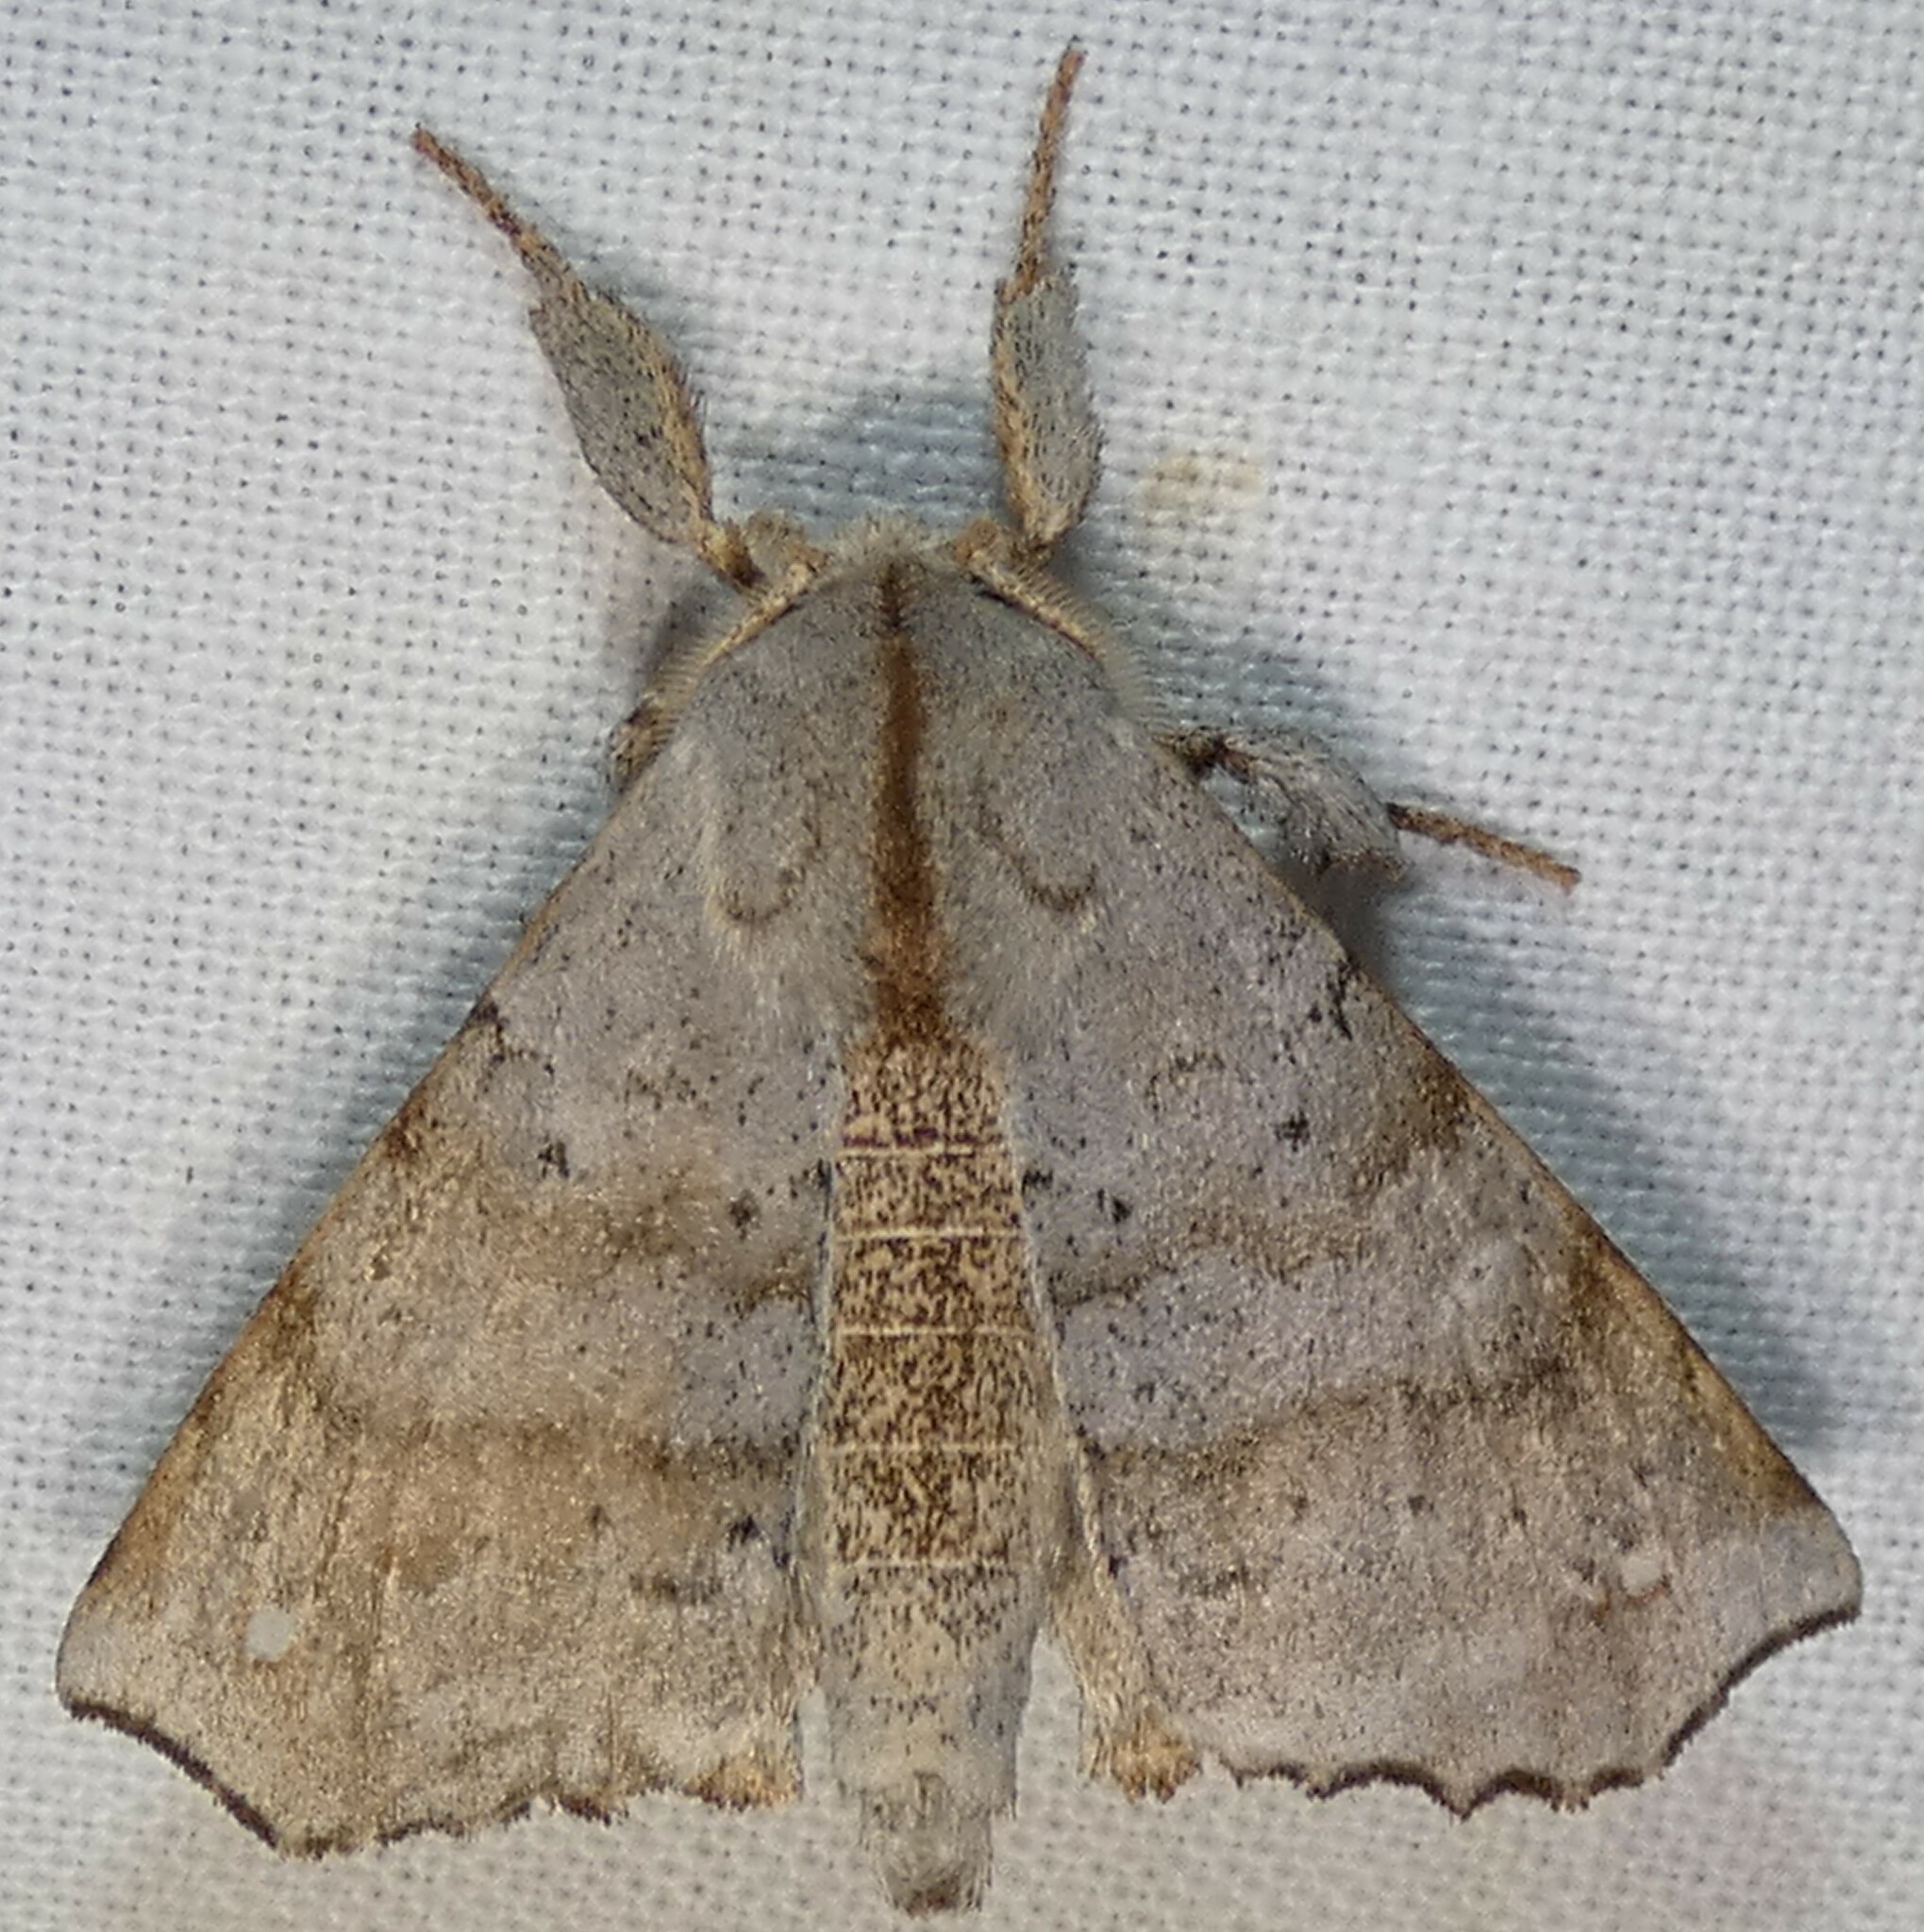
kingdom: Animalia
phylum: Arthropoda
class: Insecta
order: Lepidoptera
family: Apatelodidae
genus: Olceclostera
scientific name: Olceclostera angelica
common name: Angel moth
